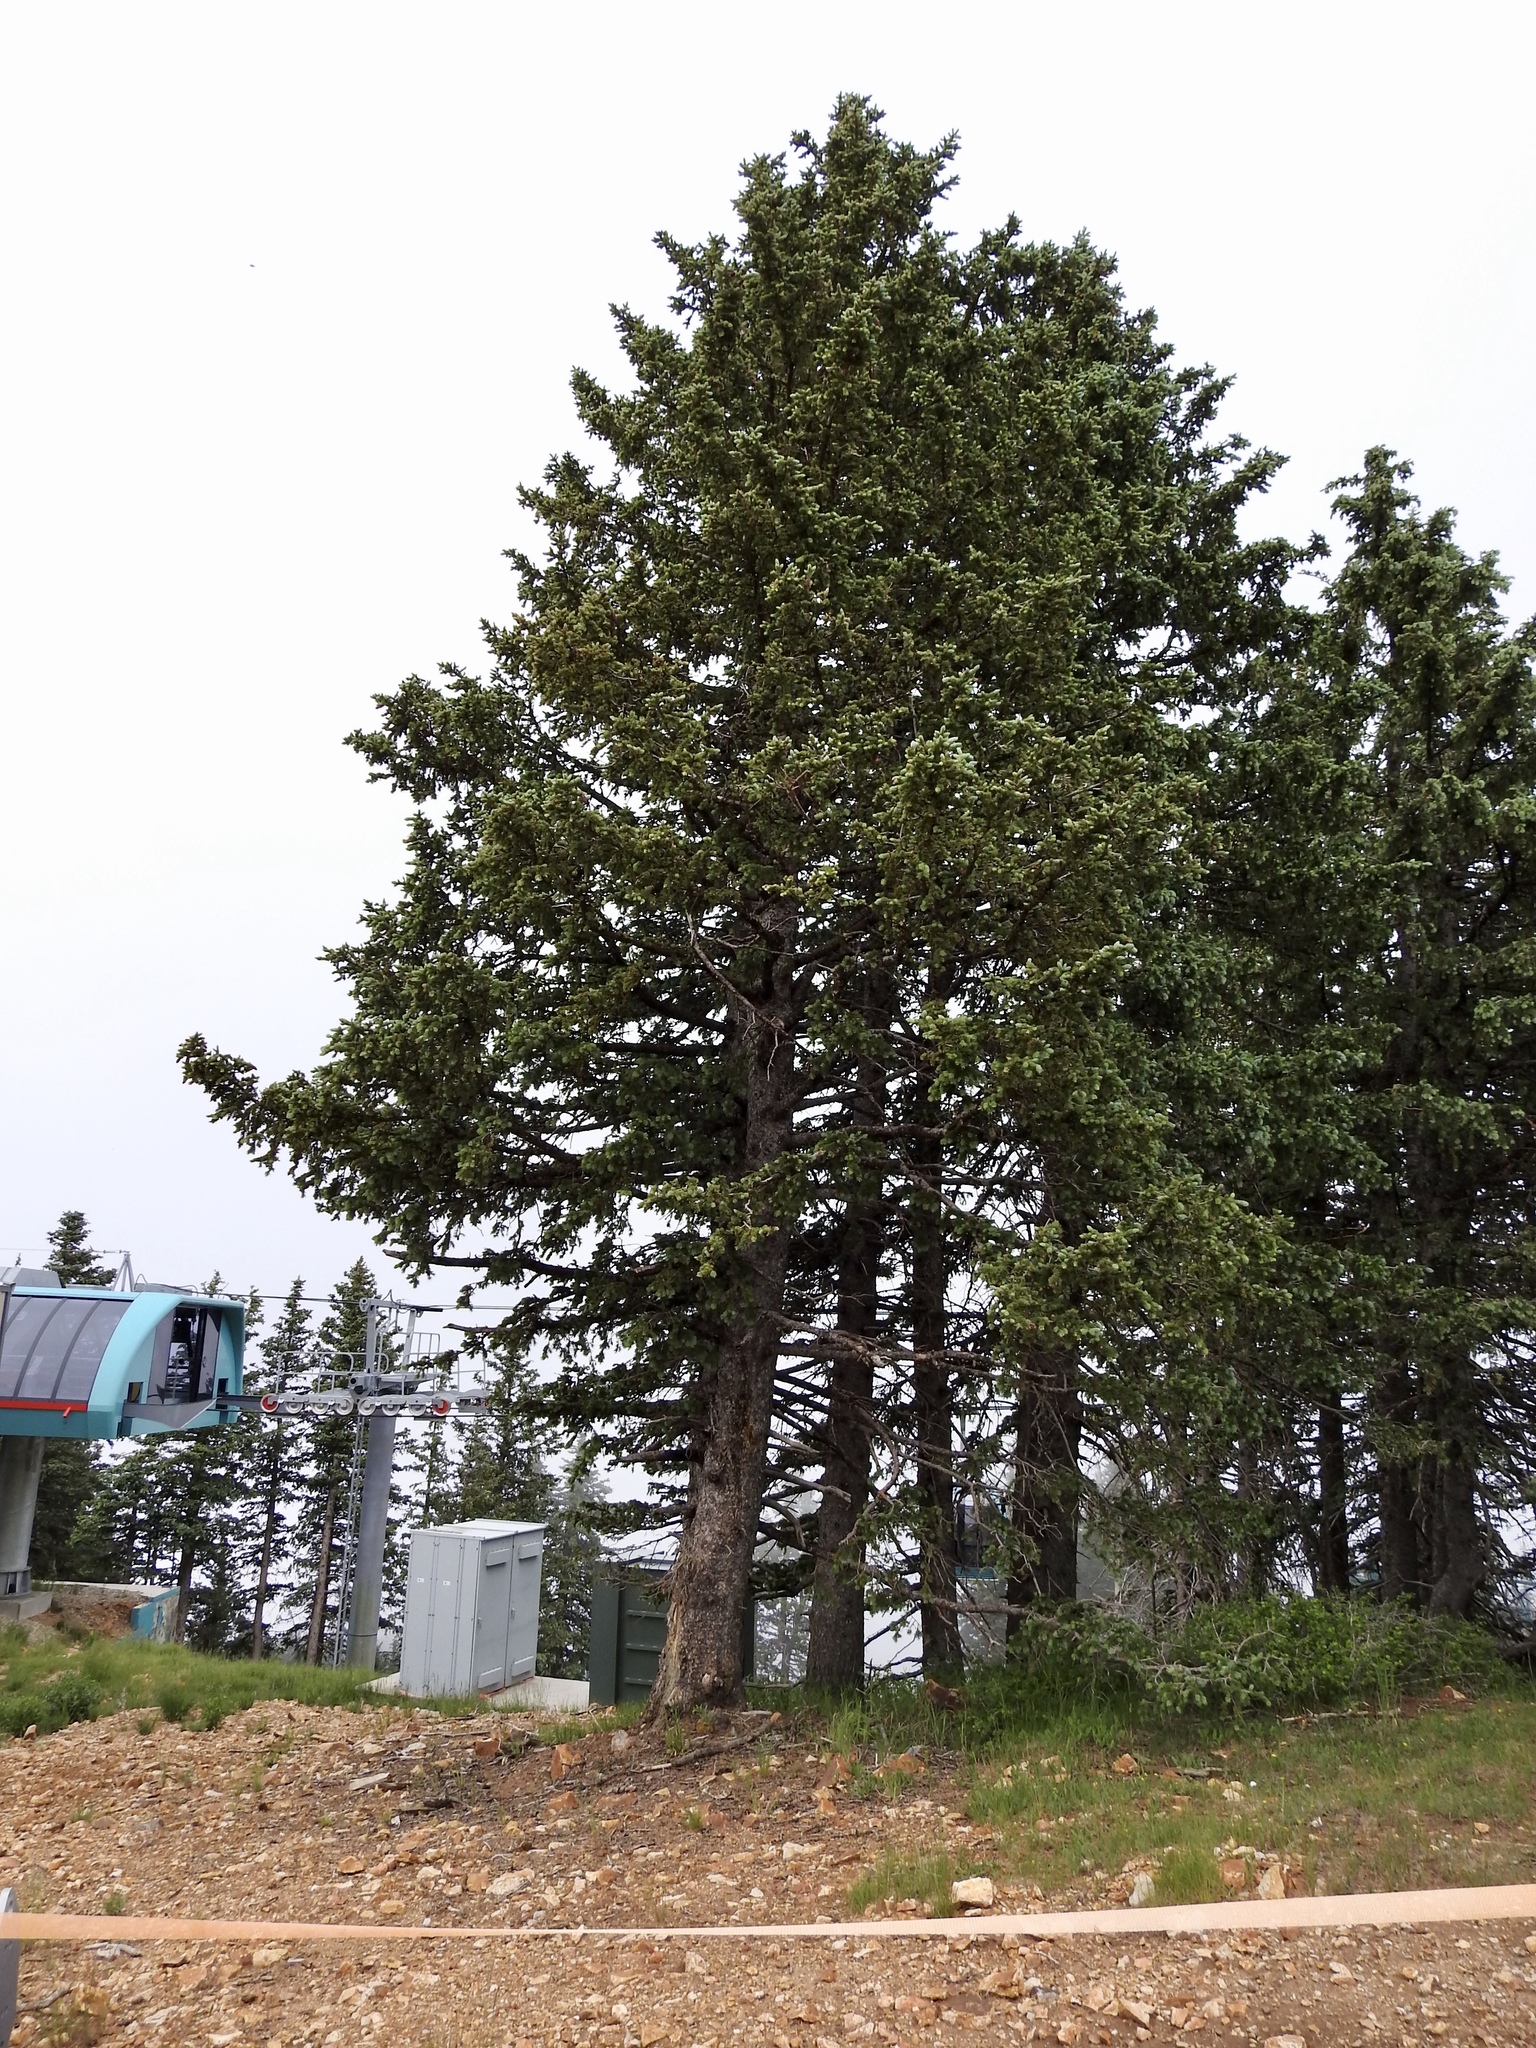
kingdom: Plantae
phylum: Tracheophyta
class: Pinopsida
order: Pinales
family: Pinaceae
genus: Picea
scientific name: Picea engelmannii
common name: Engelmann spruce
